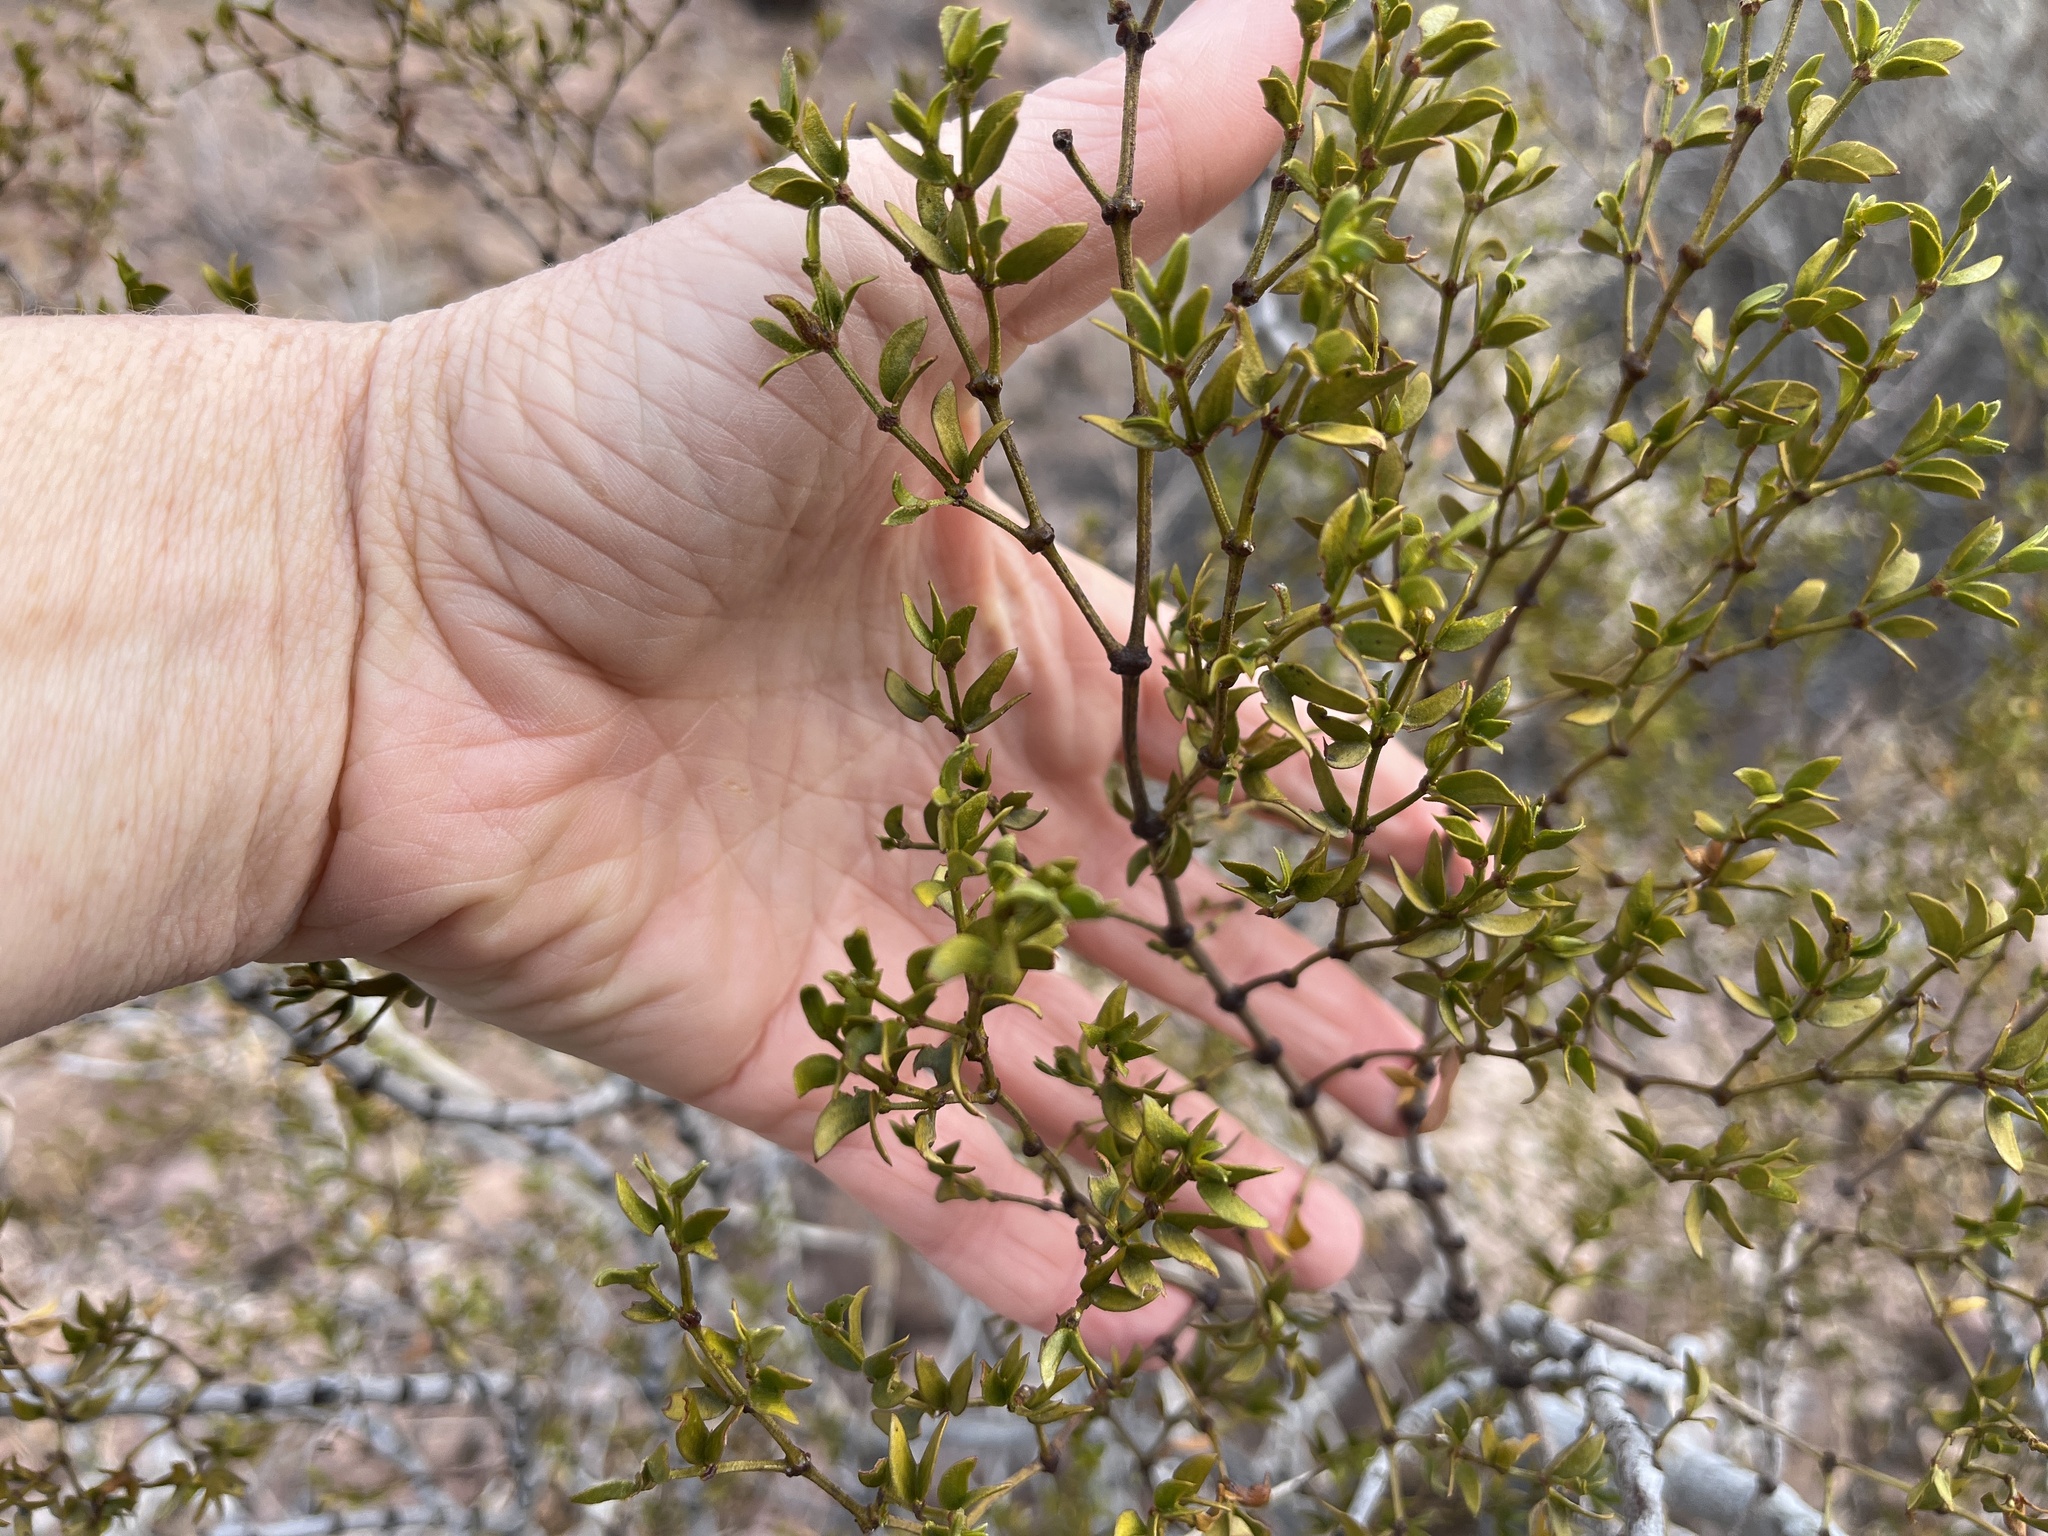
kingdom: Plantae
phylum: Tracheophyta
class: Magnoliopsida
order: Zygophyllales
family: Zygophyllaceae
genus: Larrea
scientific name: Larrea tridentata
